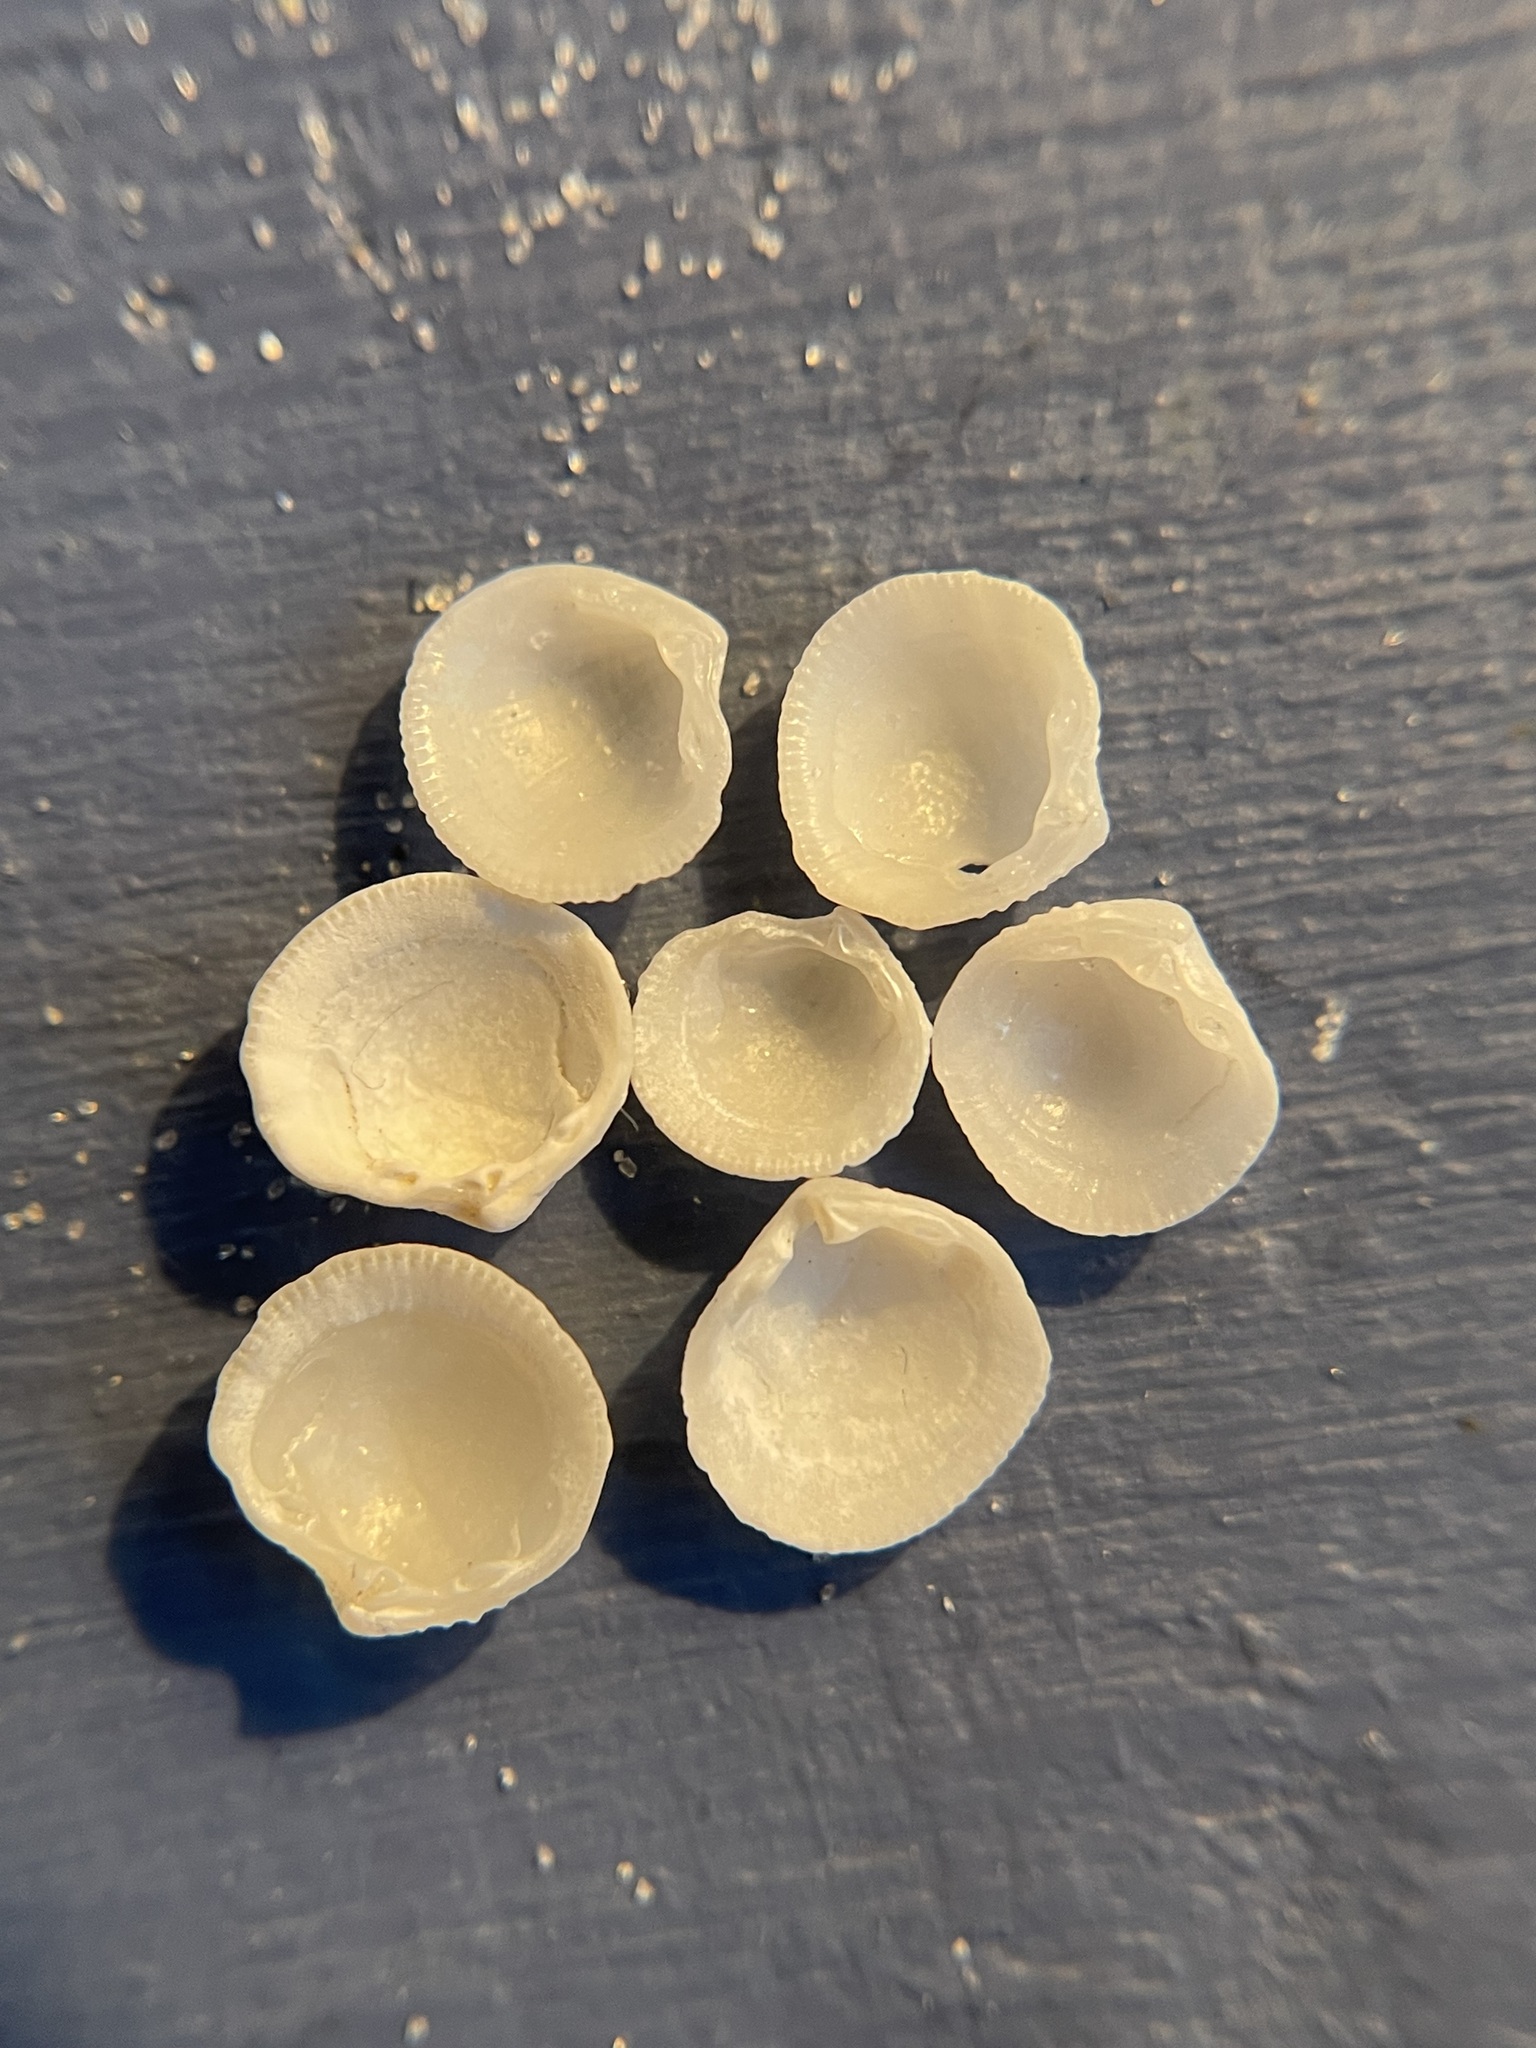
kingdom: Animalia
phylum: Mollusca
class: Bivalvia
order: Lucinida
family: Lucinidae
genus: Radiolucina
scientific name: Radiolucina amianta
